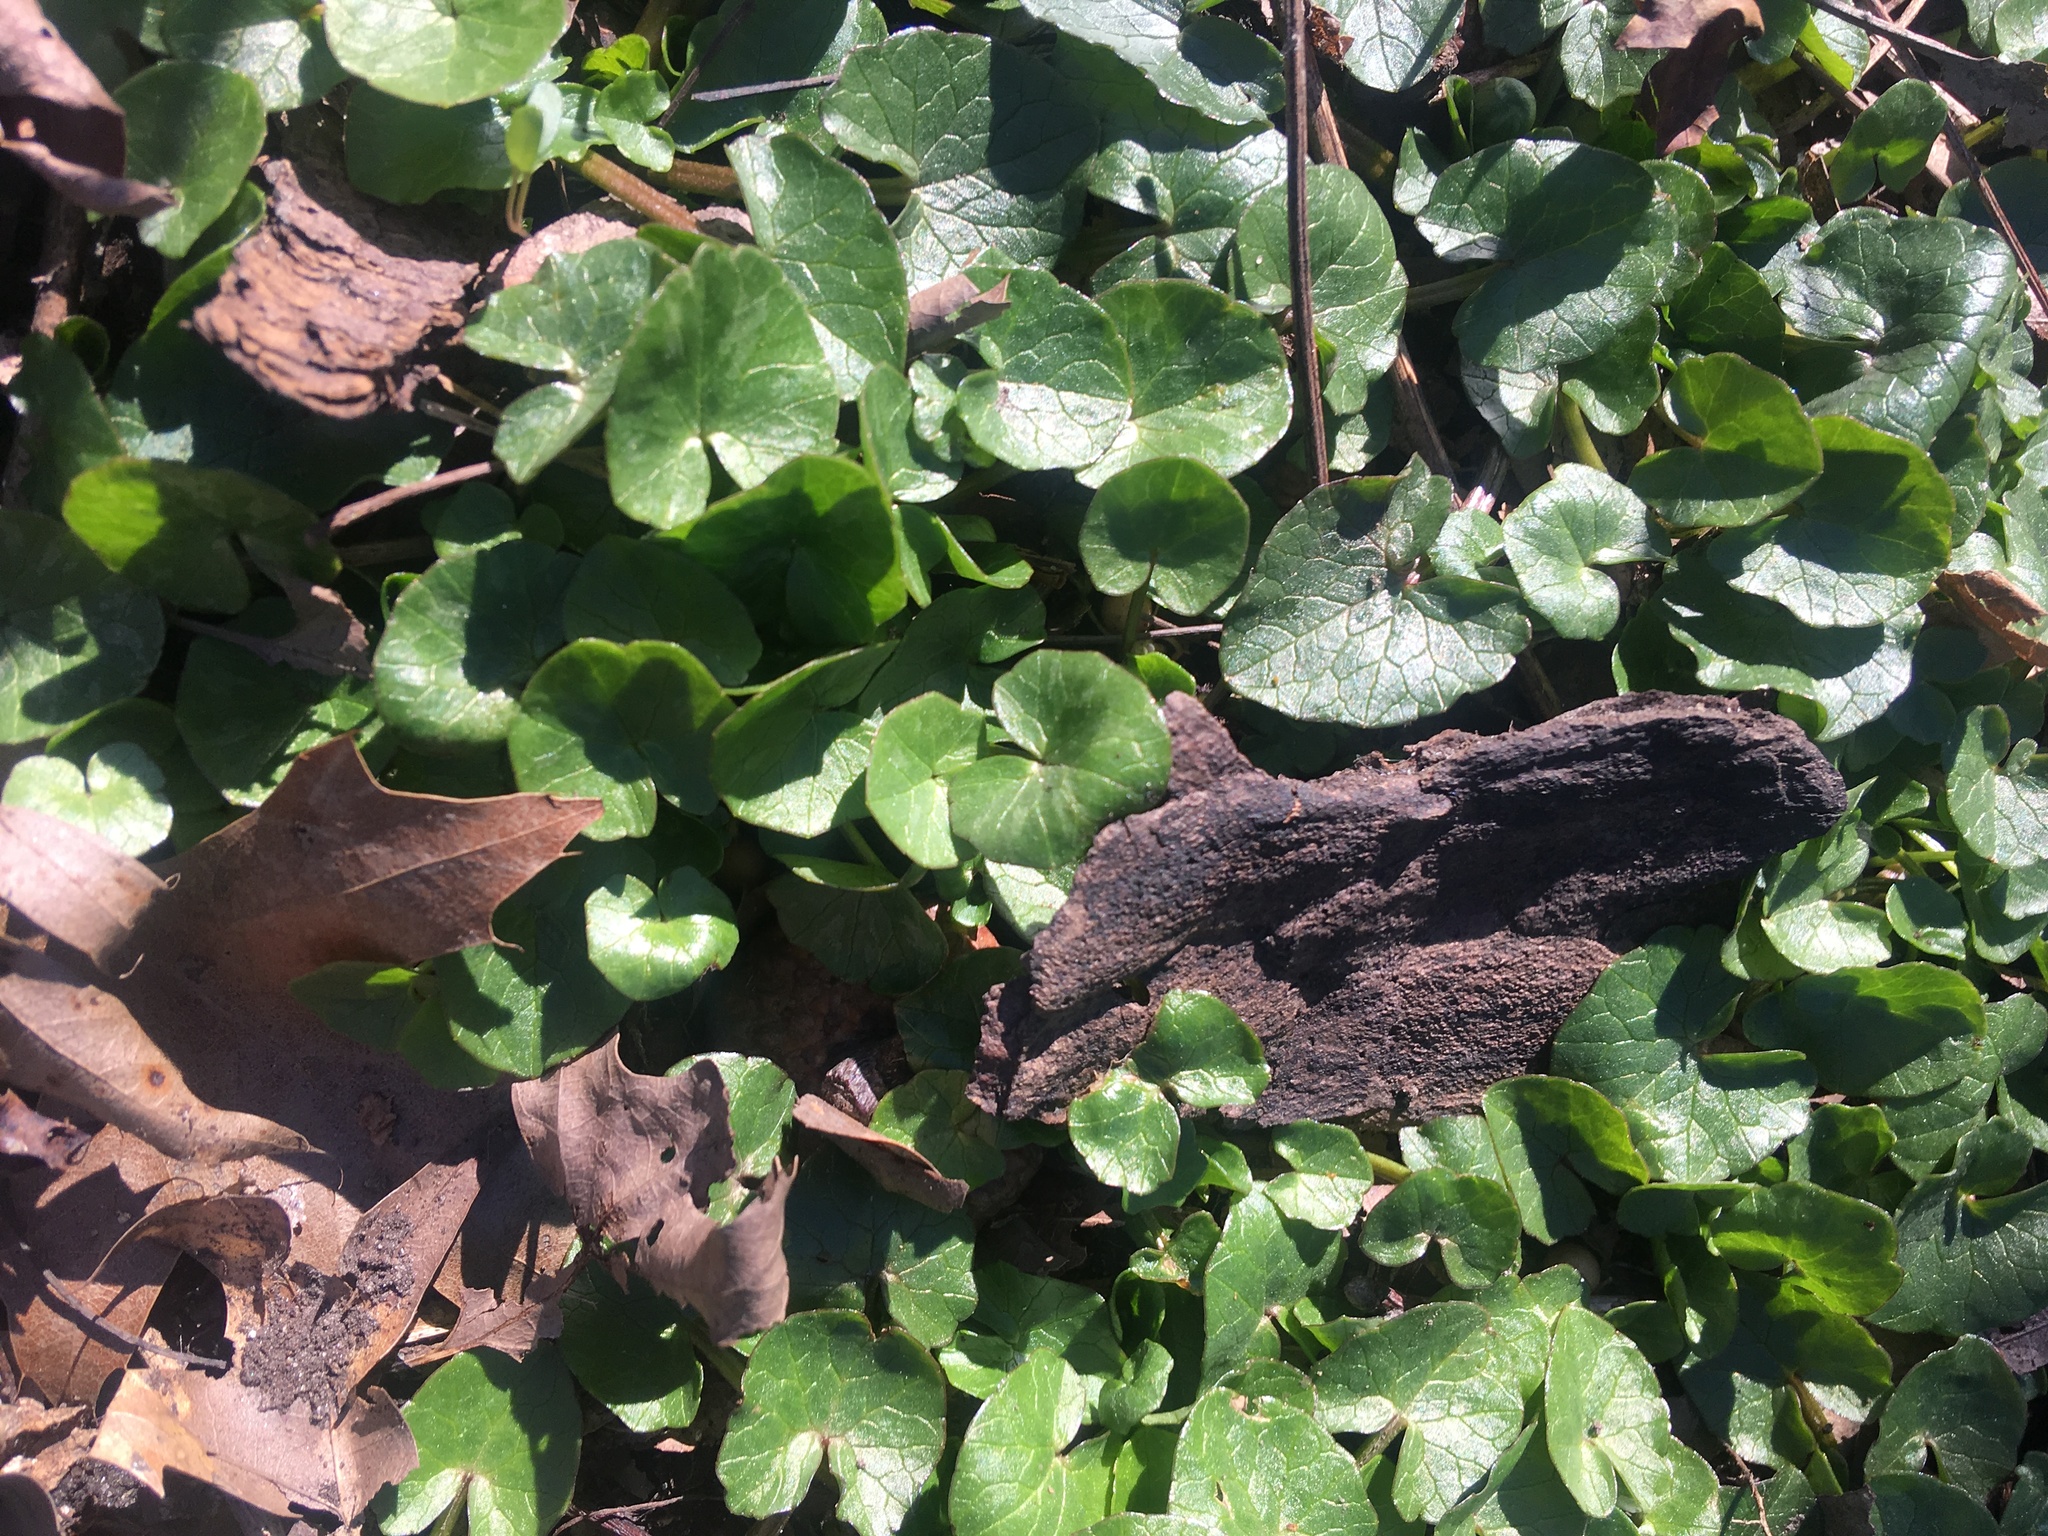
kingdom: Plantae
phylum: Tracheophyta
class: Magnoliopsida
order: Ranunculales
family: Ranunculaceae
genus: Ficaria
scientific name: Ficaria verna
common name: Lesser celandine
